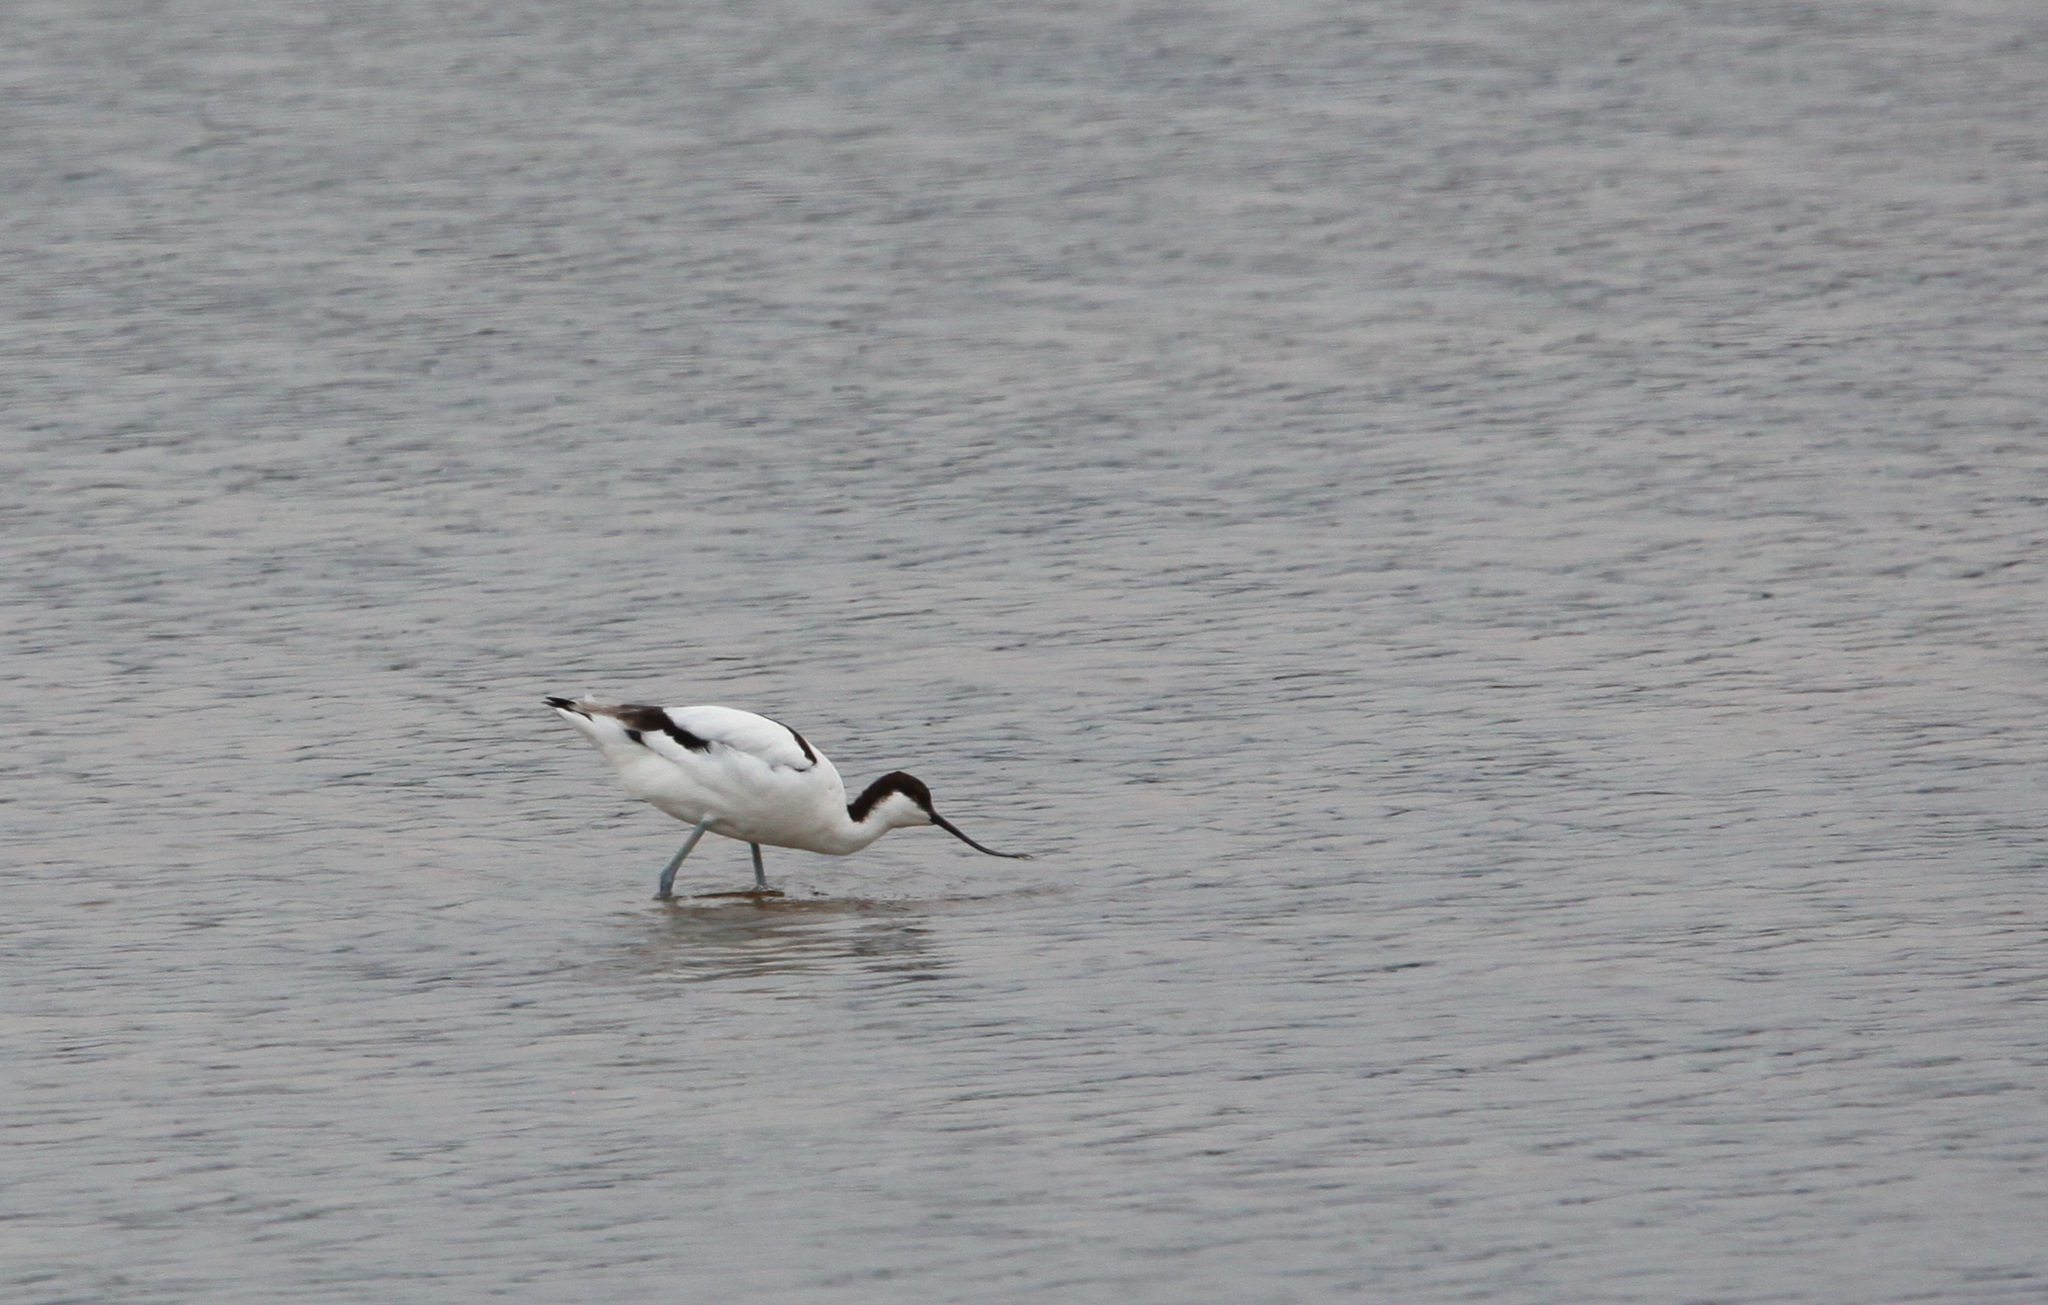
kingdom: Animalia
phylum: Chordata
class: Aves
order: Charadriiformes
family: Recurvirostridae
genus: Recurvirostra
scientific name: Recurvirostra avosetta
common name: Pied avocet
